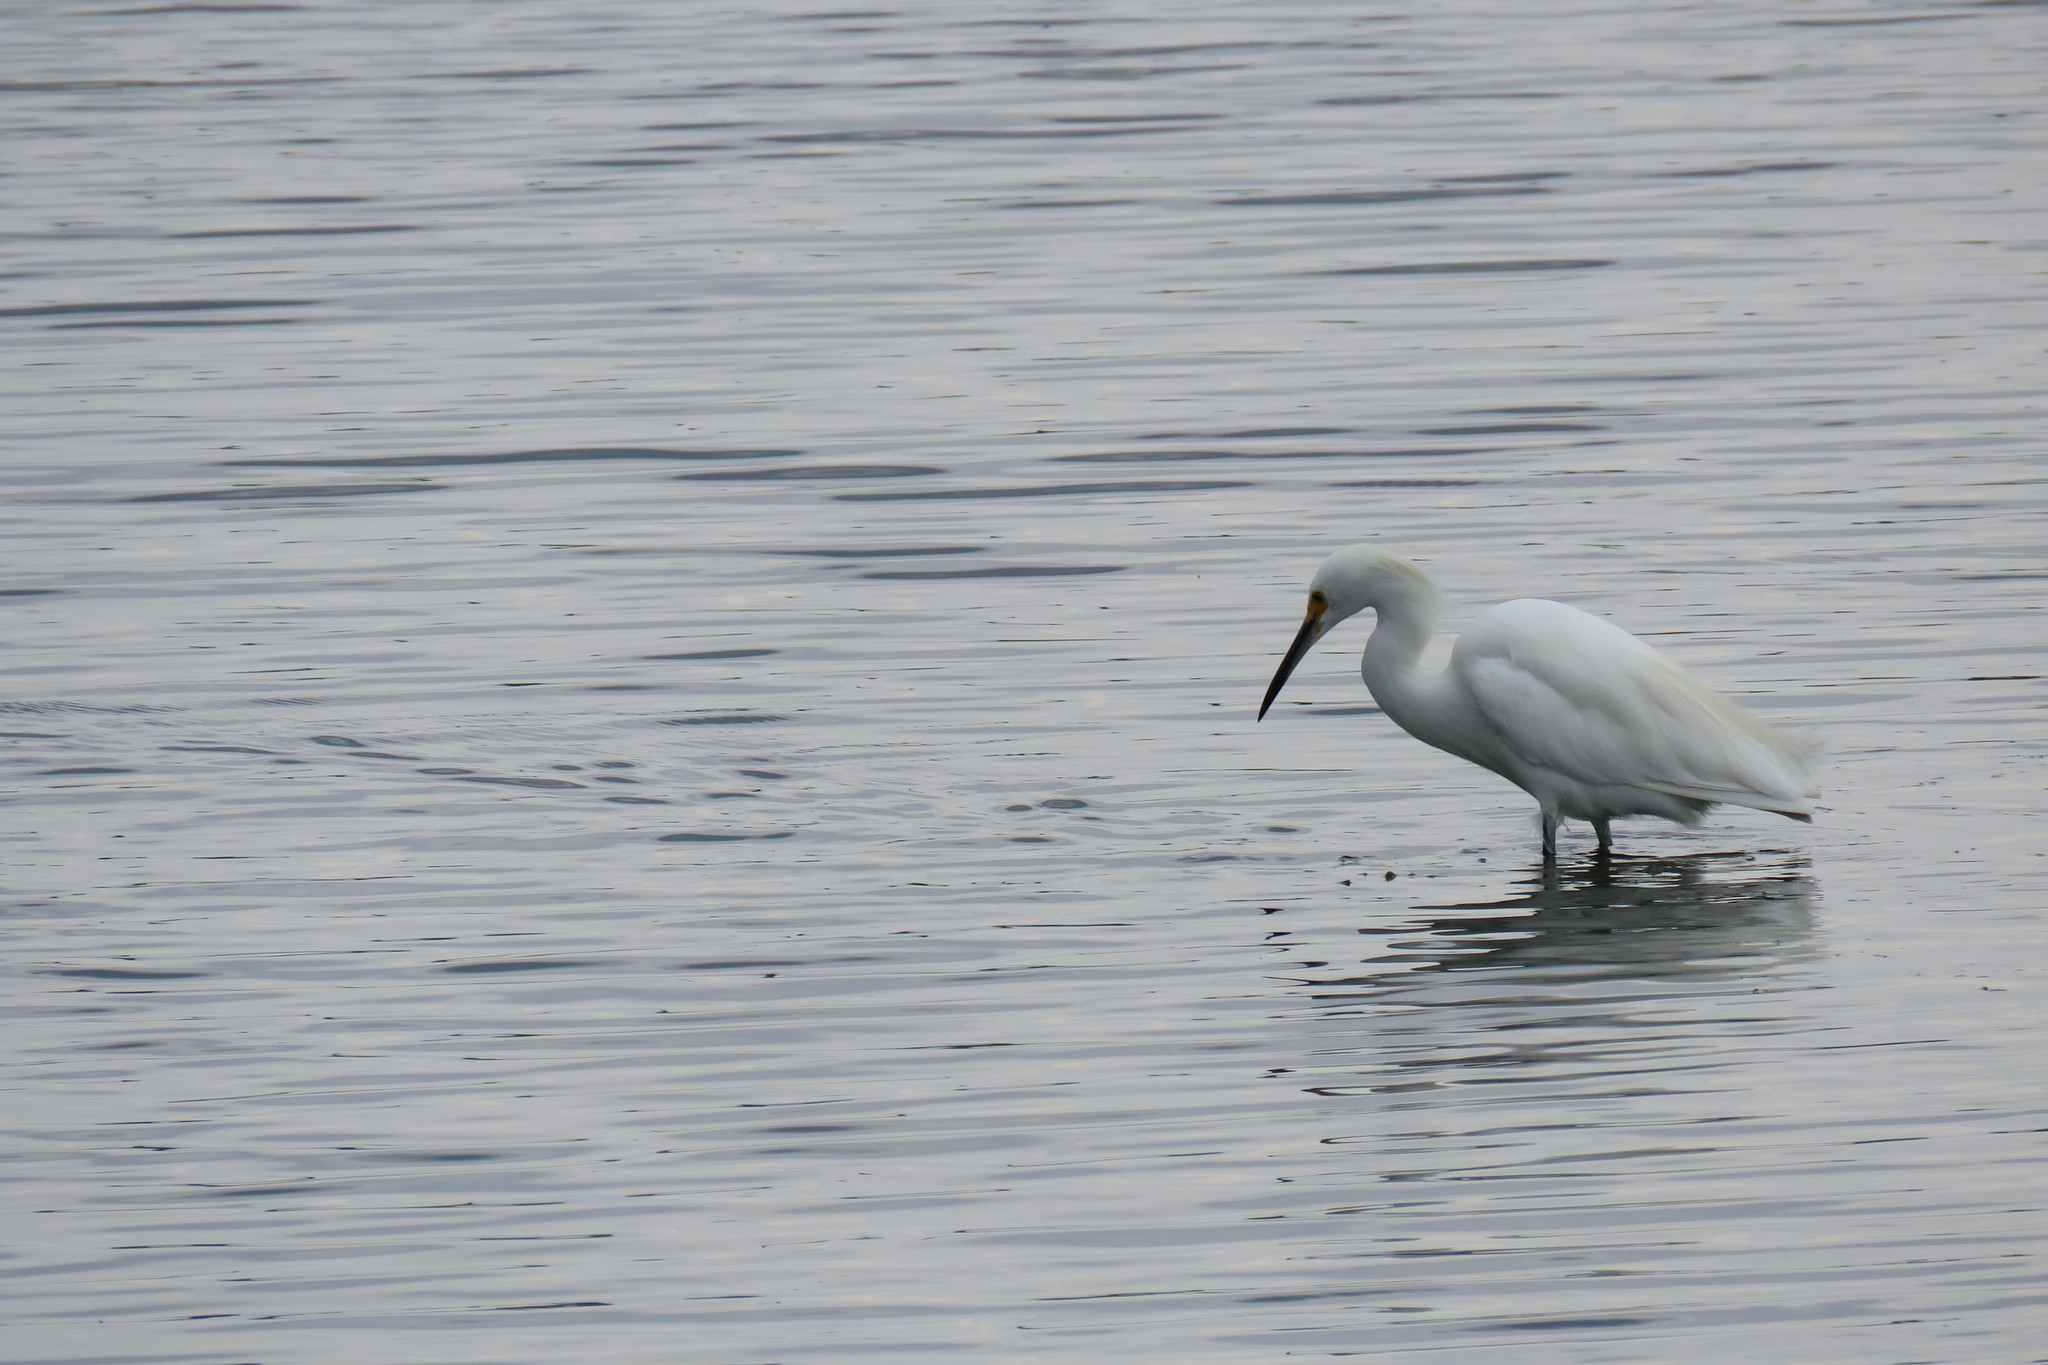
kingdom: Animalia
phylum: Chordata
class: Aves
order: Pelecaniformes
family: Ardeidae
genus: Egretta
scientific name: Egretta thula
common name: Snowy egret
